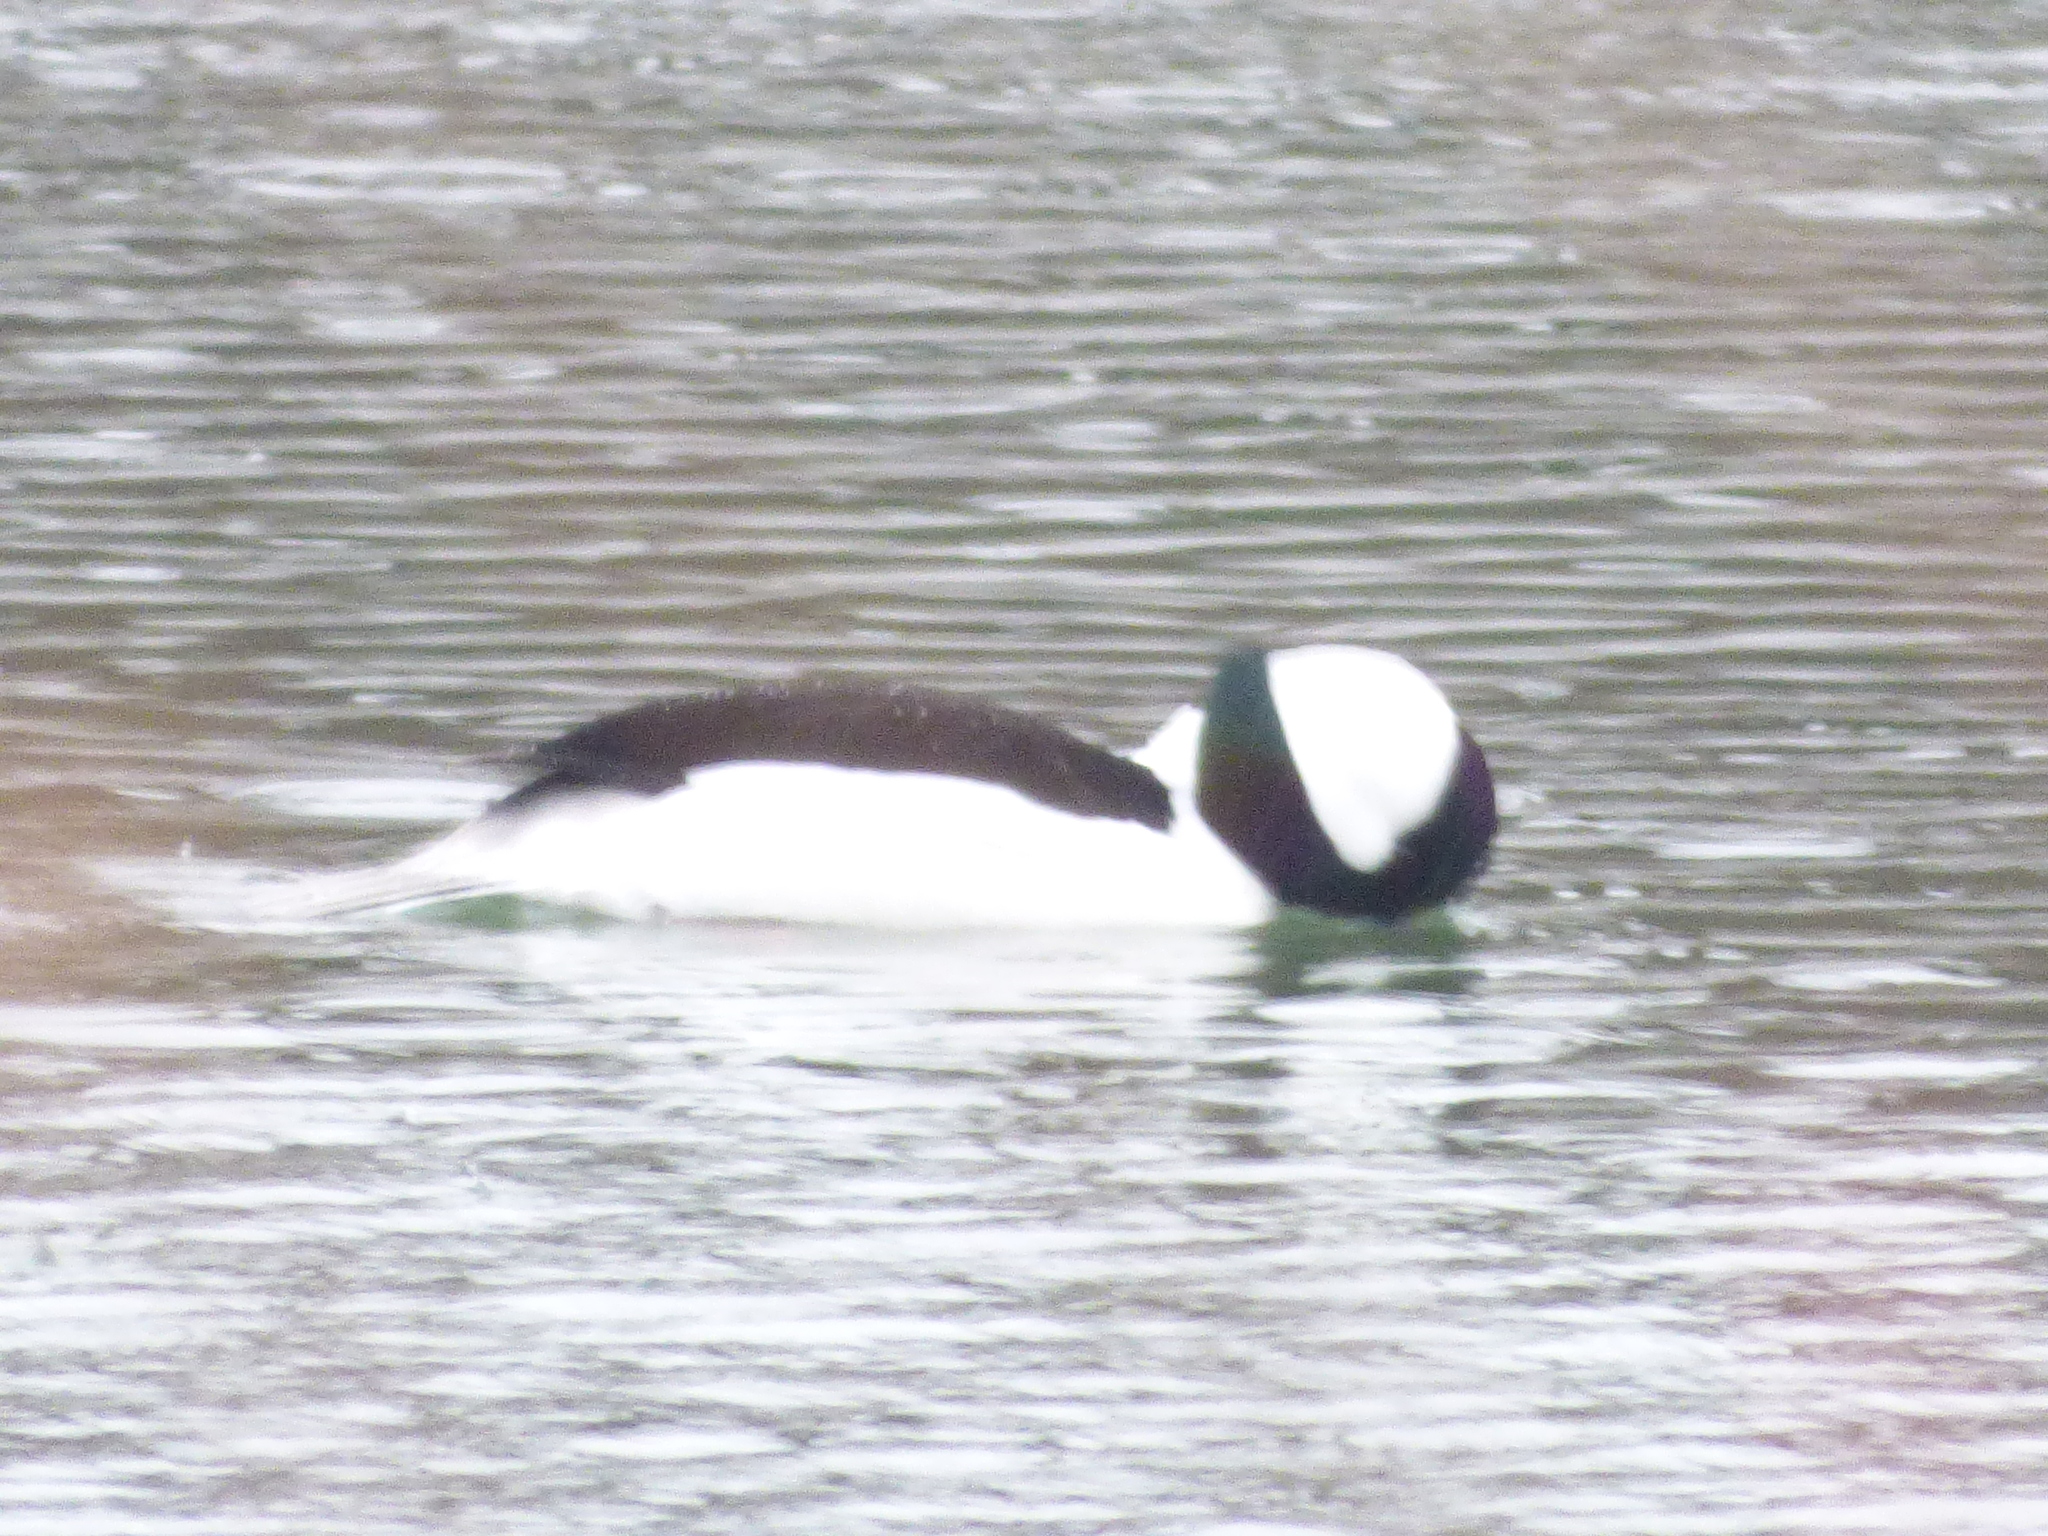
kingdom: Animalia
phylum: Chordata
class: Aves
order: Anseriformes
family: Anatidae
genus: Bucephala
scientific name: Bucephala albeola
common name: Bufflehead
